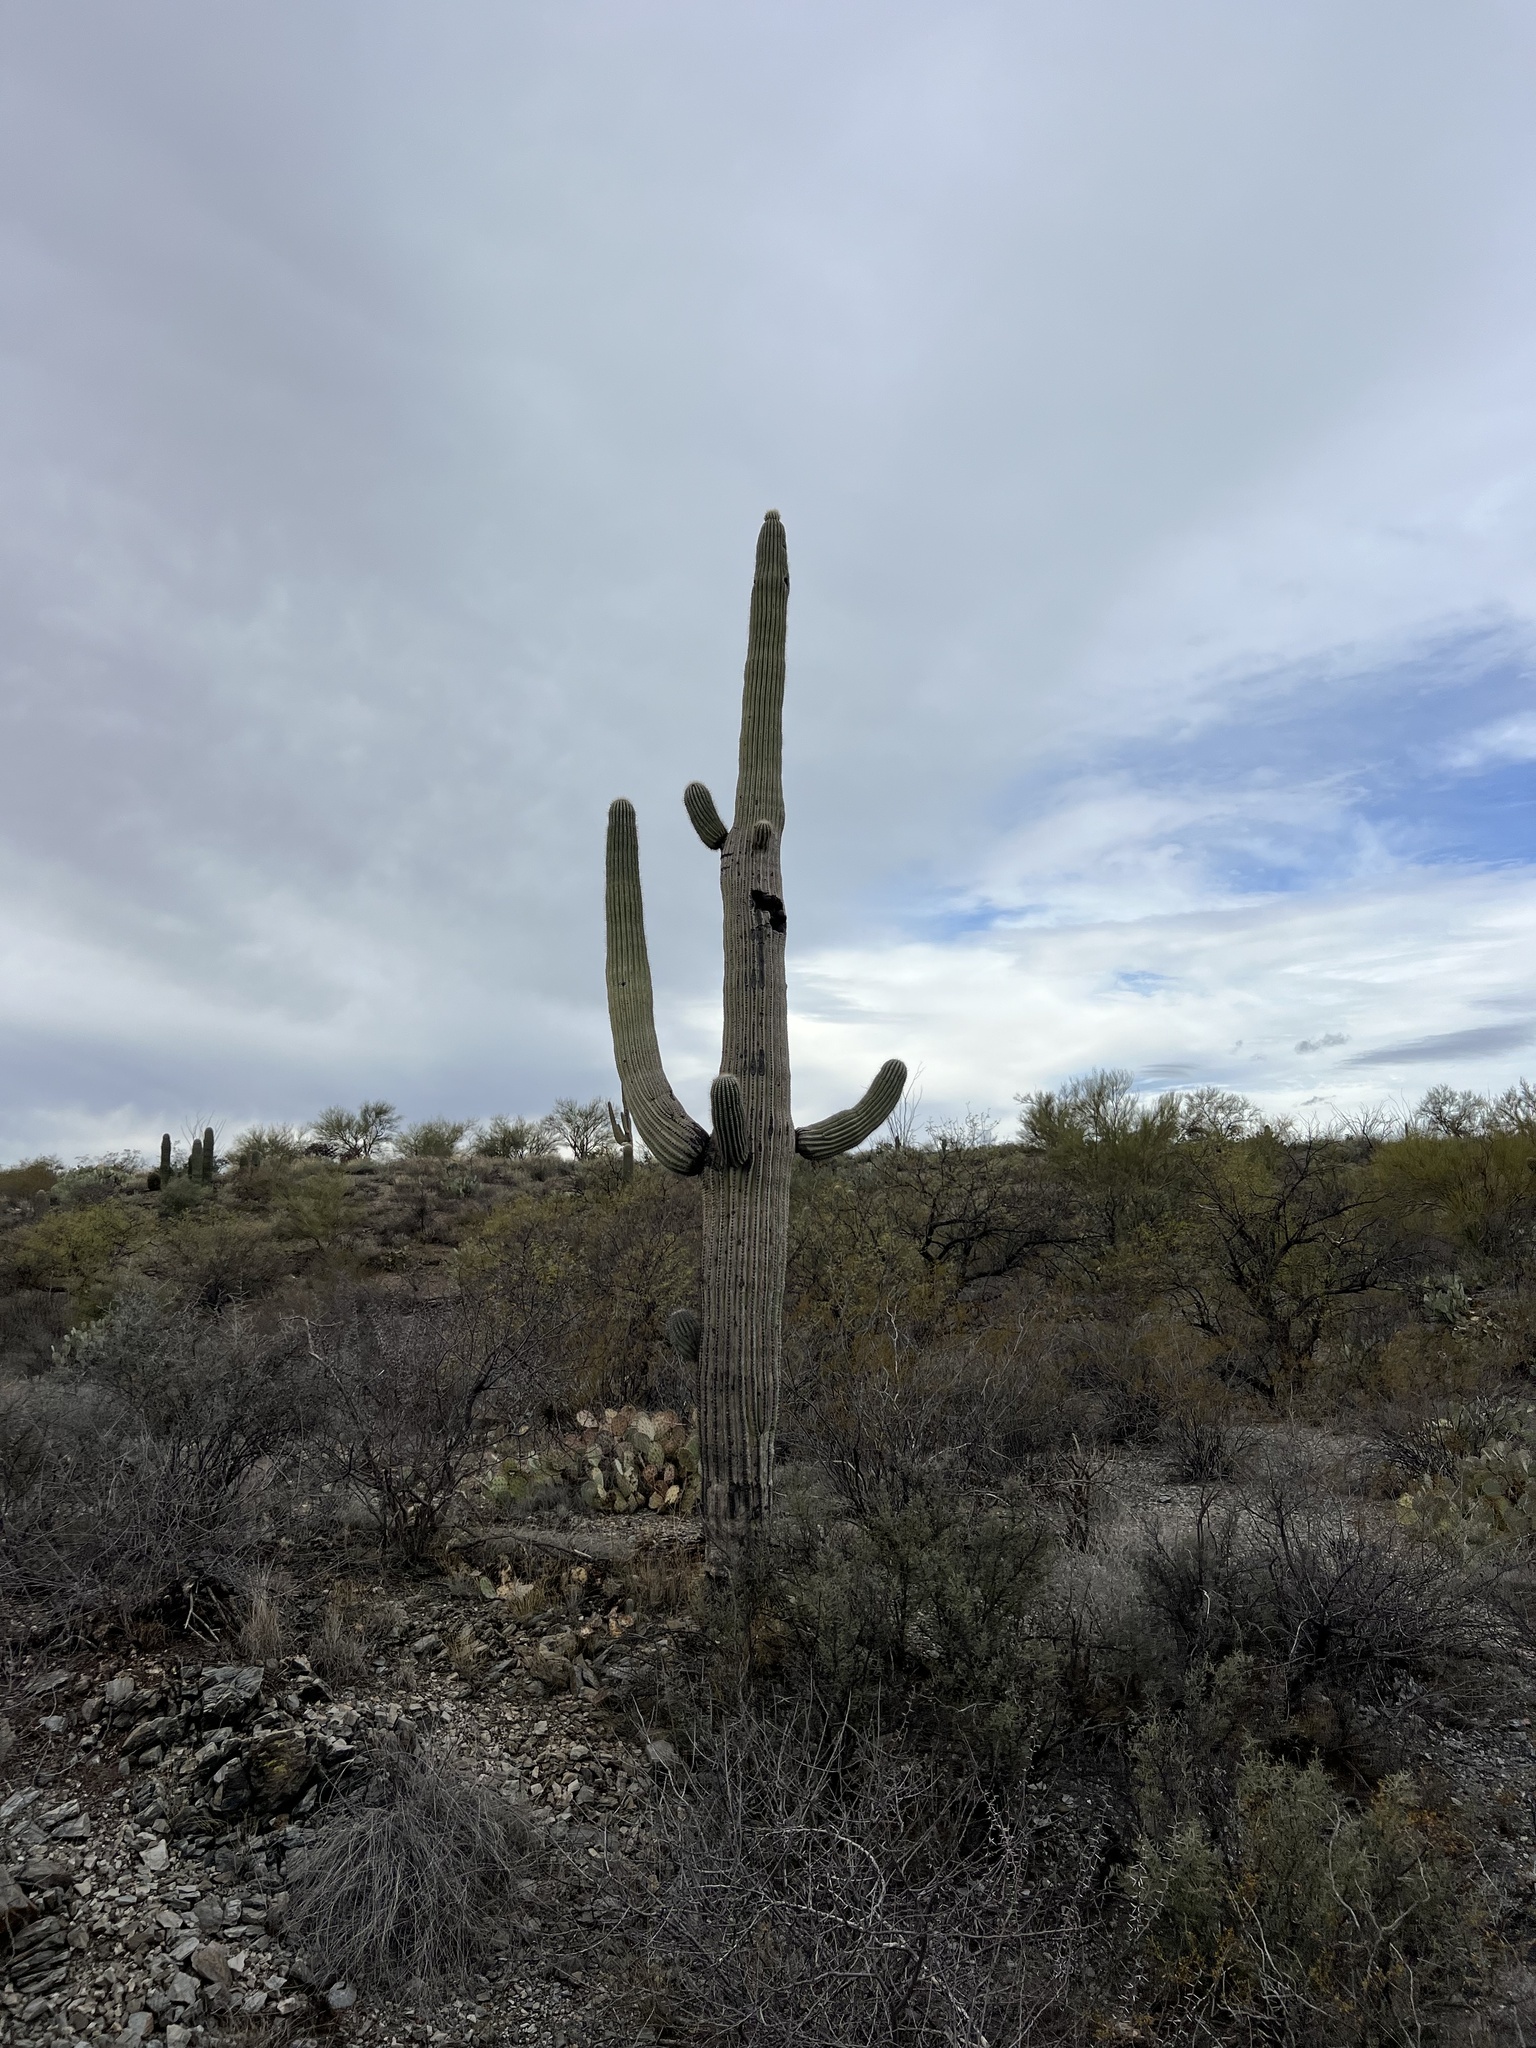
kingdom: Plantae
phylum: Tracheophyta
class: Magnoliopsida
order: Caryophyllales
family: Cactaceae
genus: Carnegiea
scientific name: Carnegiea gigantea
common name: Saguaro
